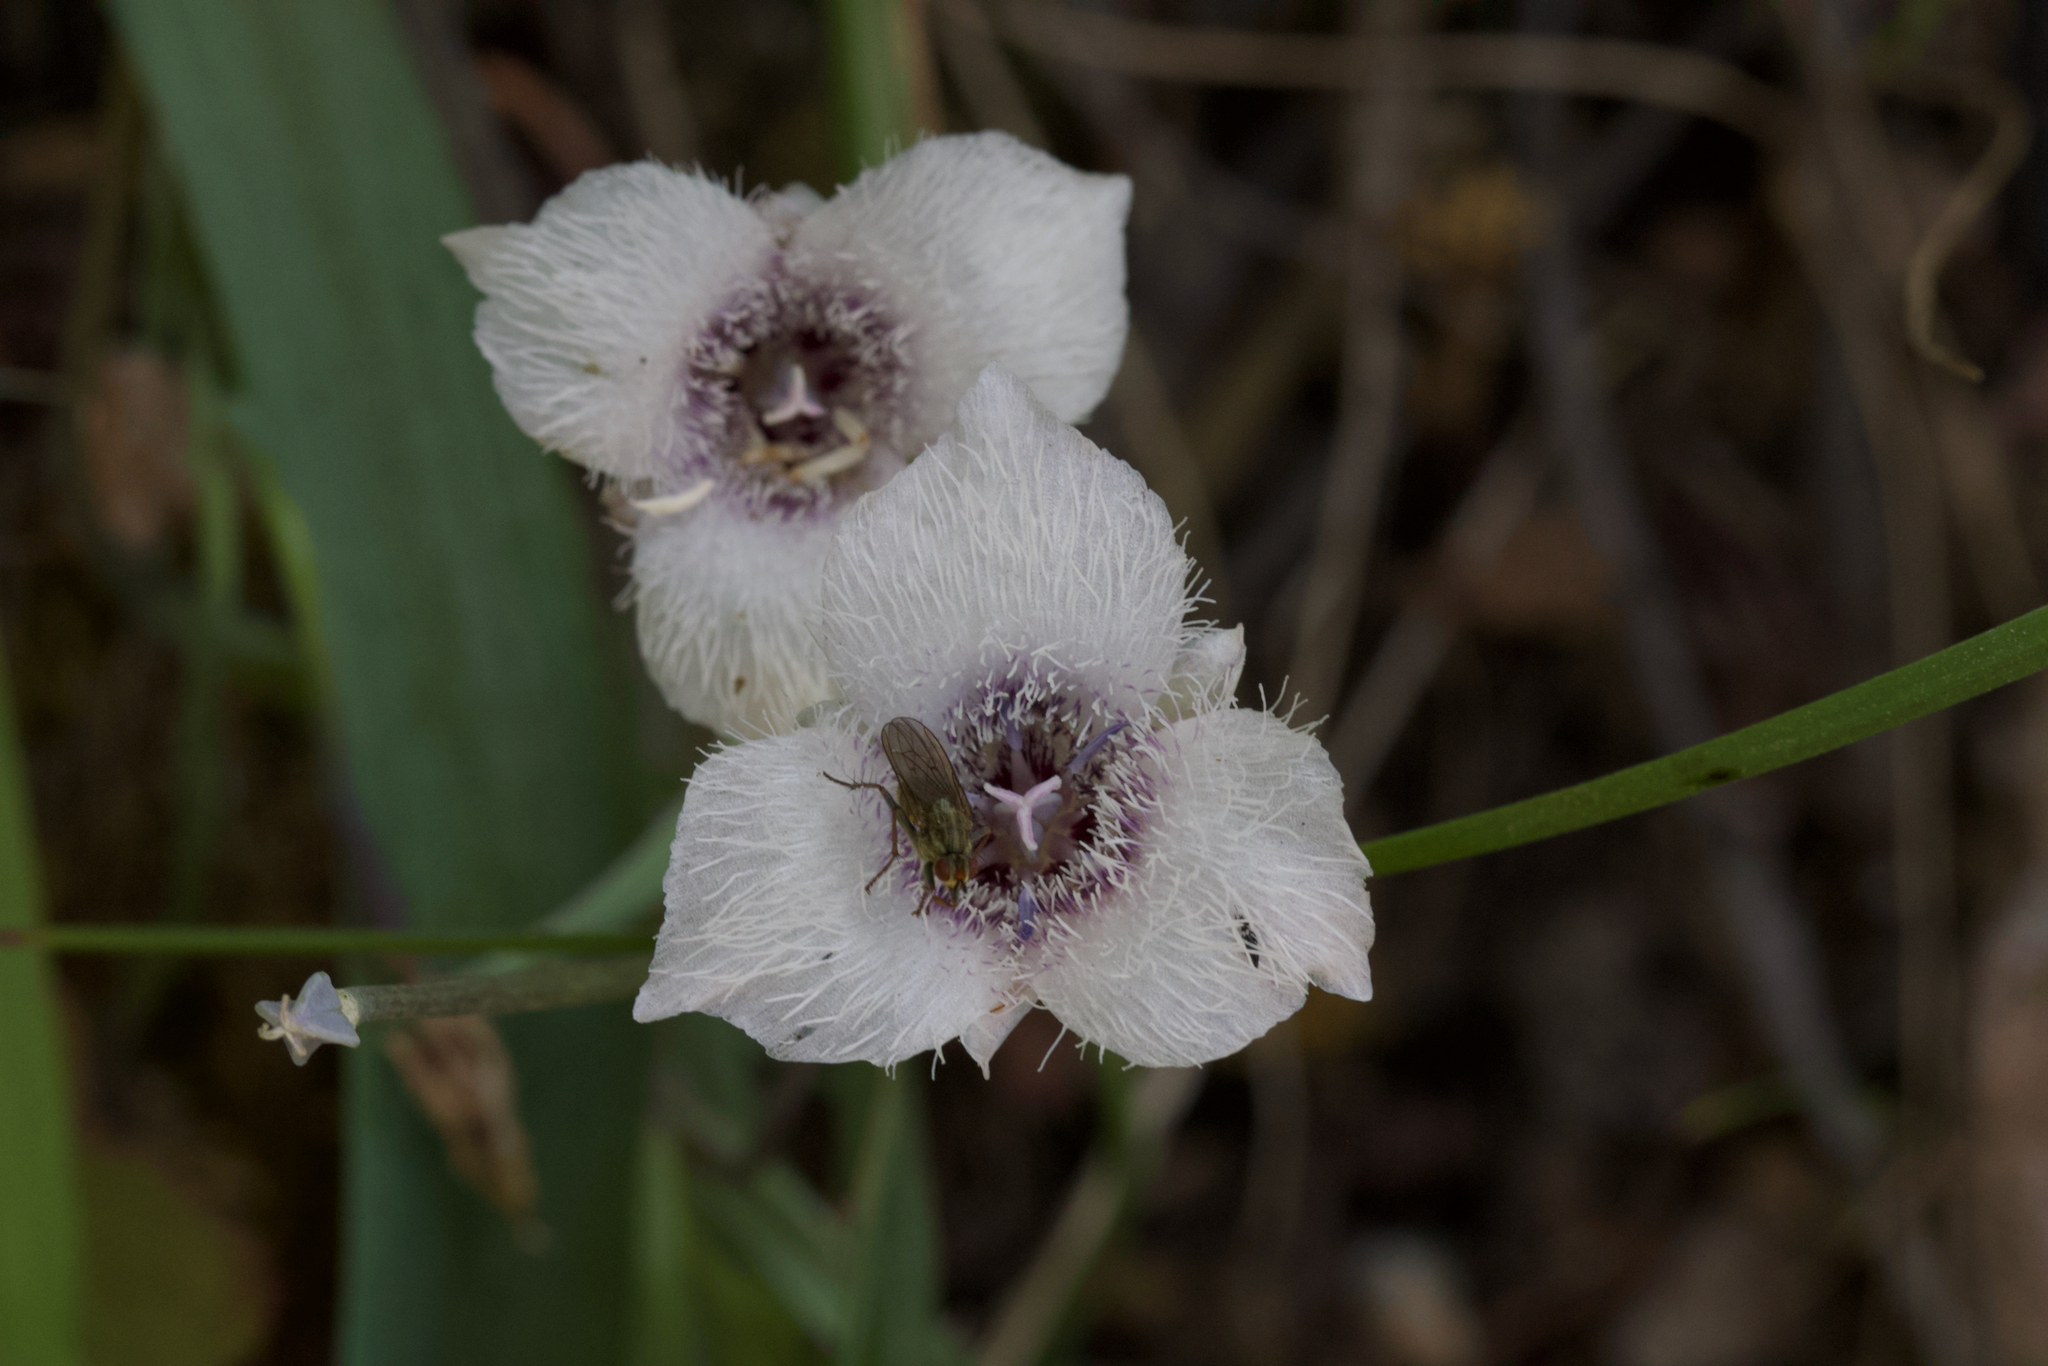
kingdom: Plantae
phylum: Tracheophyta
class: Liliopsida
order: Liliales
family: Liliaceae
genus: Calochortus
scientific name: Calochortus tolmiei
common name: Pussy-ears
